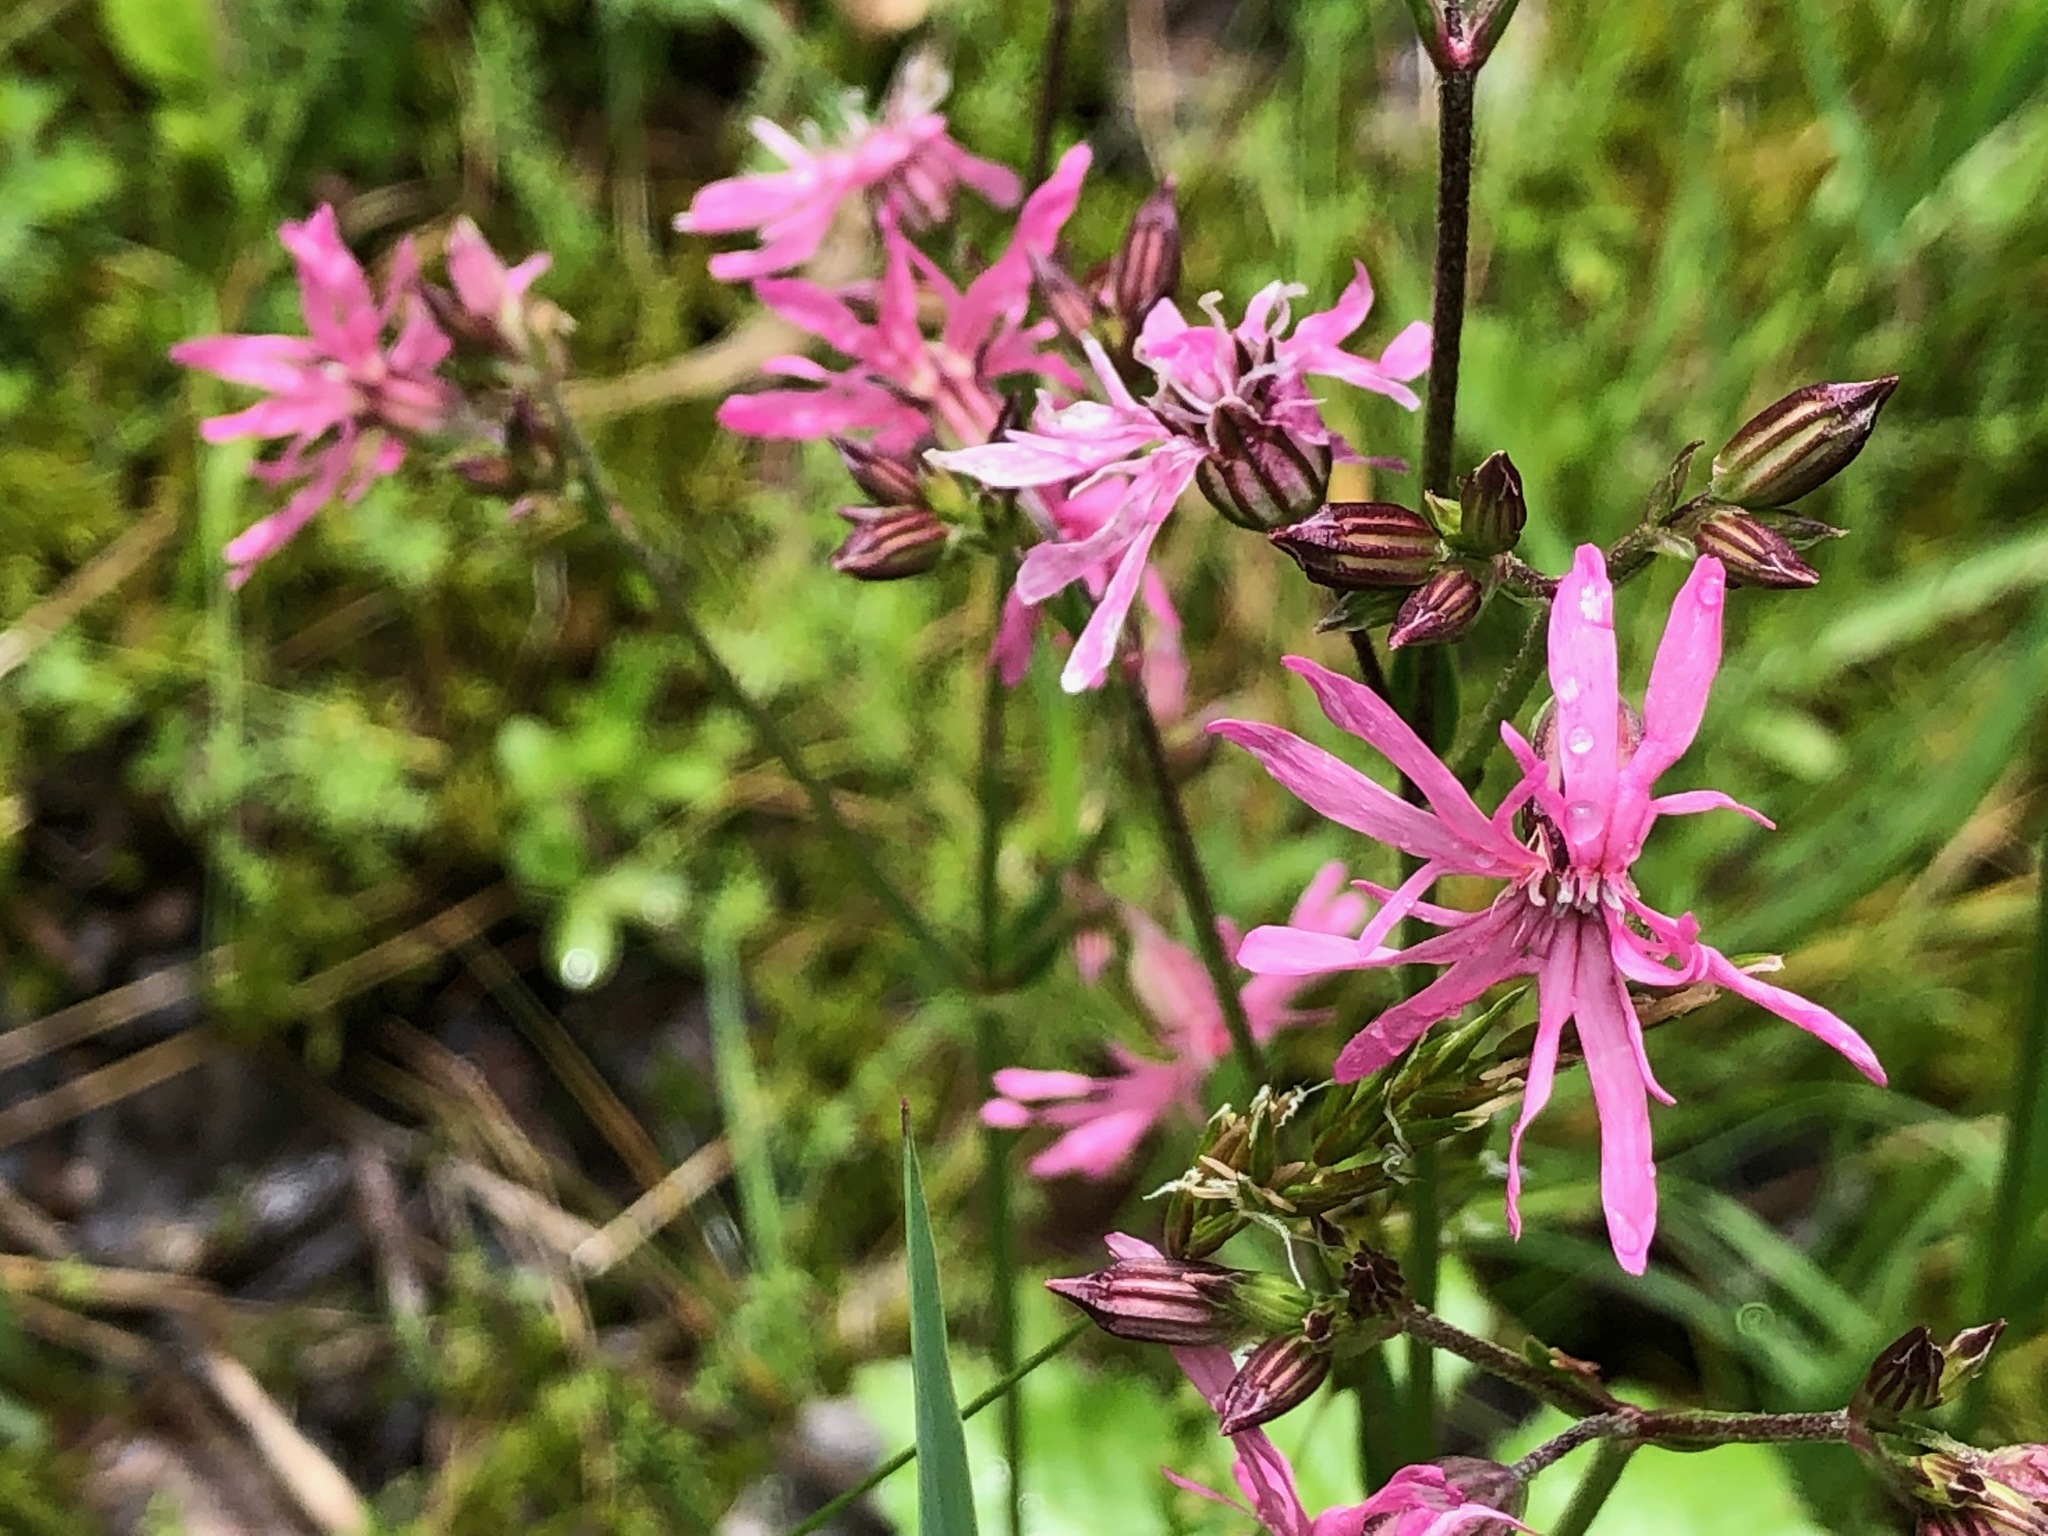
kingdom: Plantae
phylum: Tracheophyta
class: Magnoliopsida
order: Caryophyllales
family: Caryophyllaceae
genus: Silene
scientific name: Silene flos-cuculi
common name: Ragged-robin
